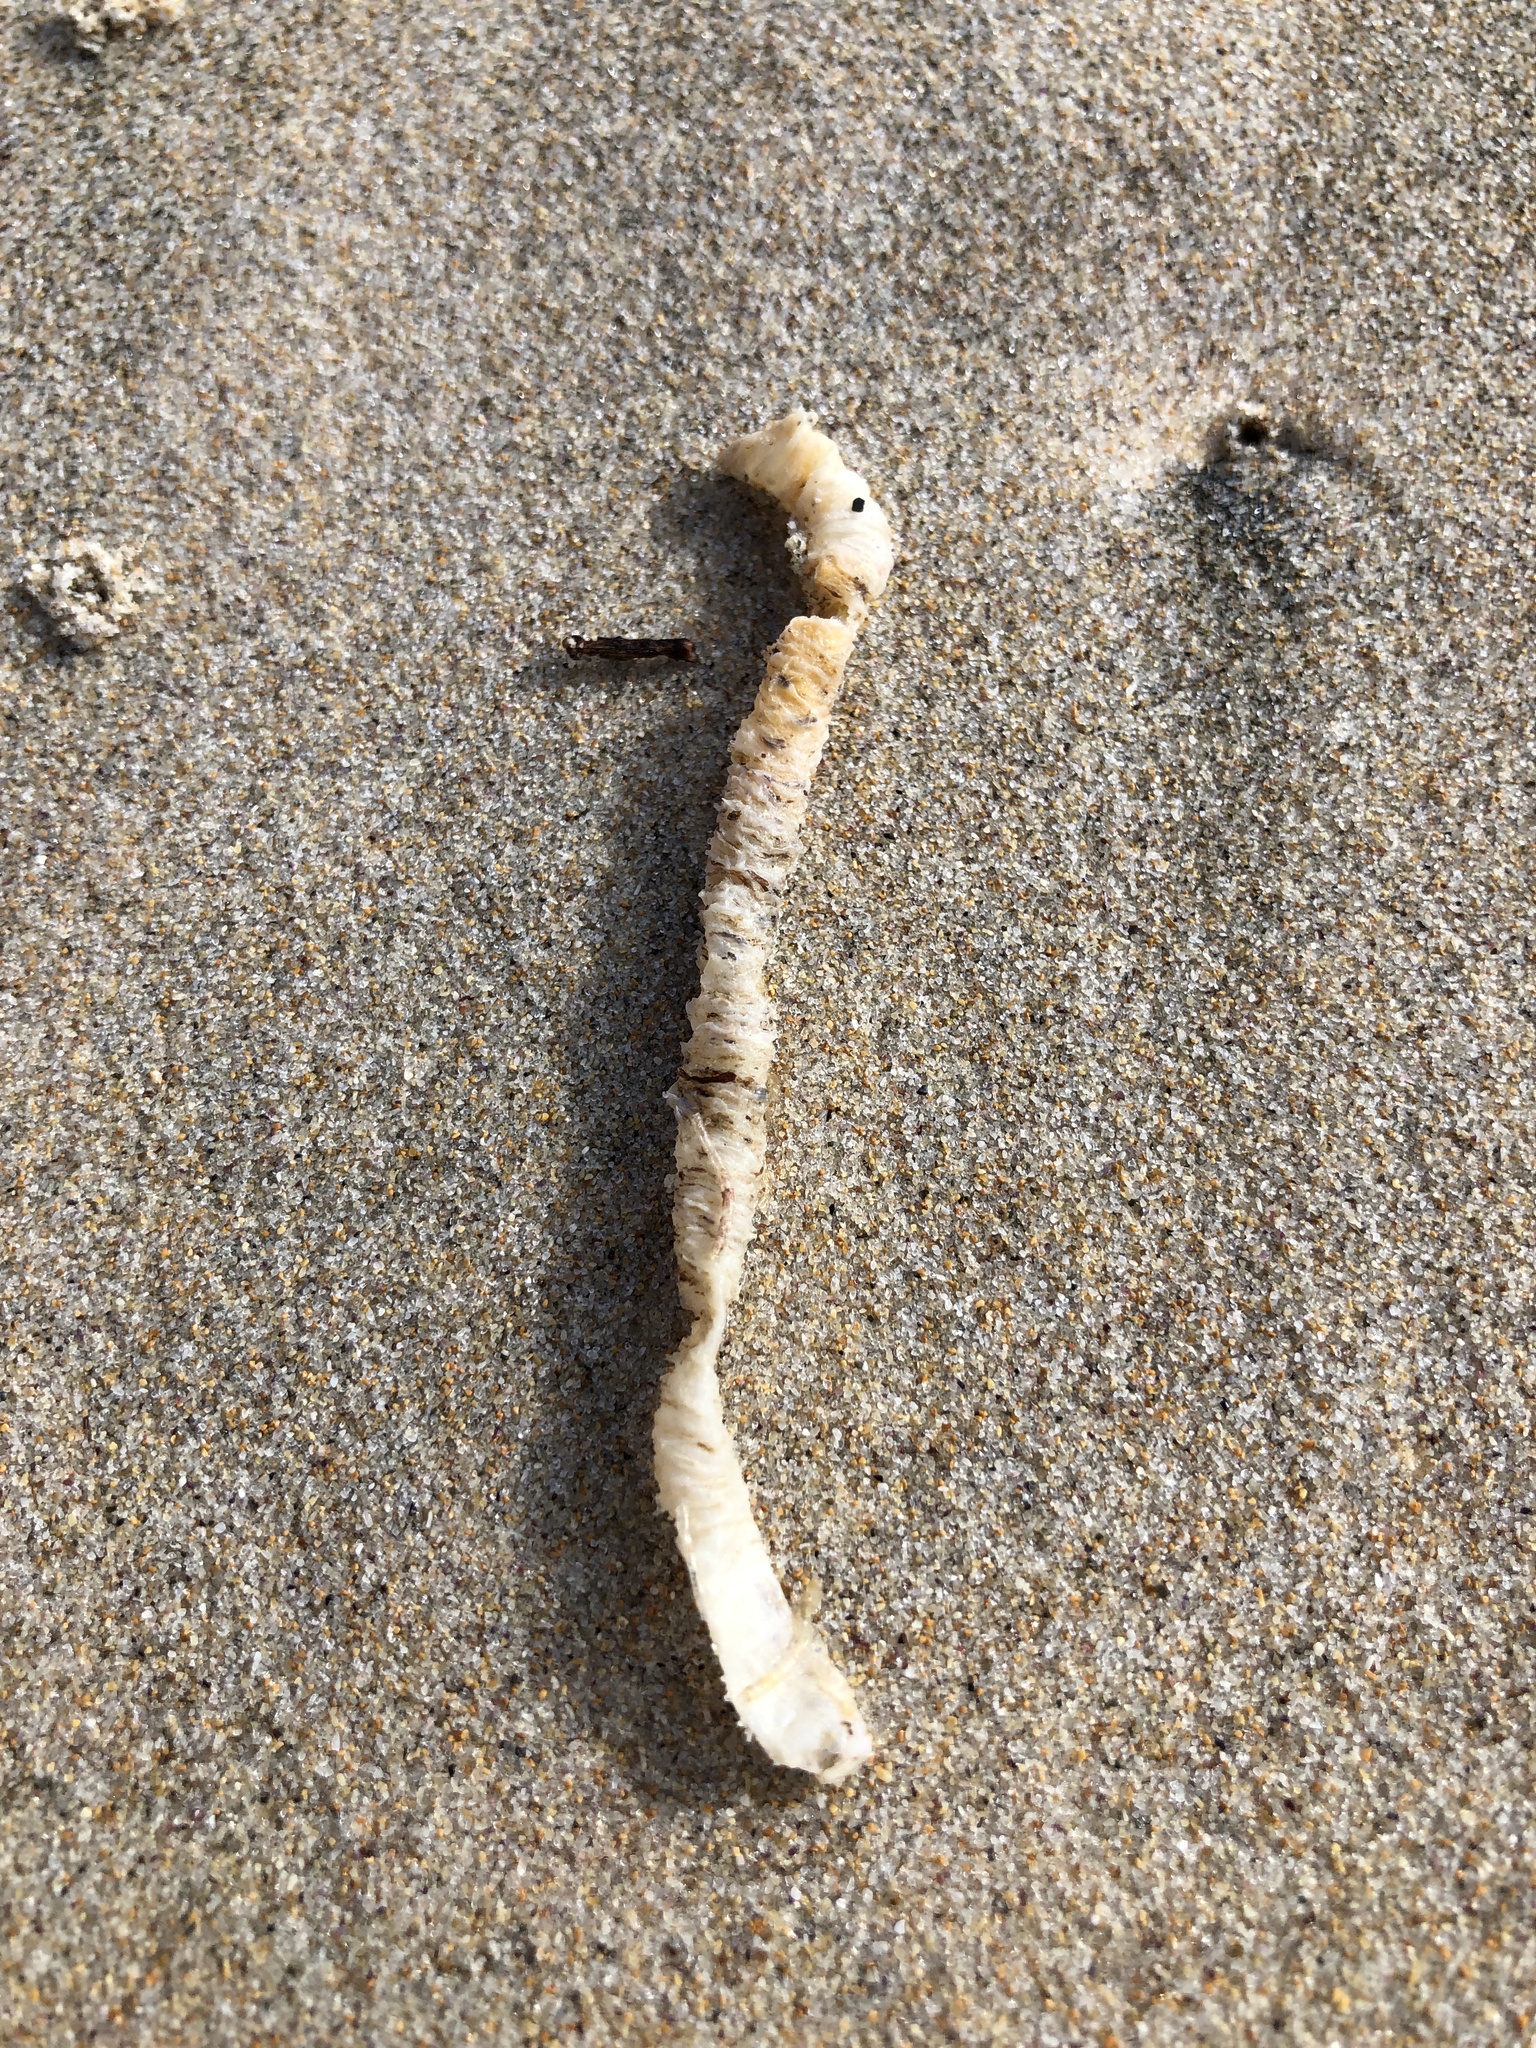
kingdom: Animalia
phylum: Annelida
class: Polychaeta
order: Eunicida
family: Onuphidae
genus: Diopatra
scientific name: Diopatra dentata
